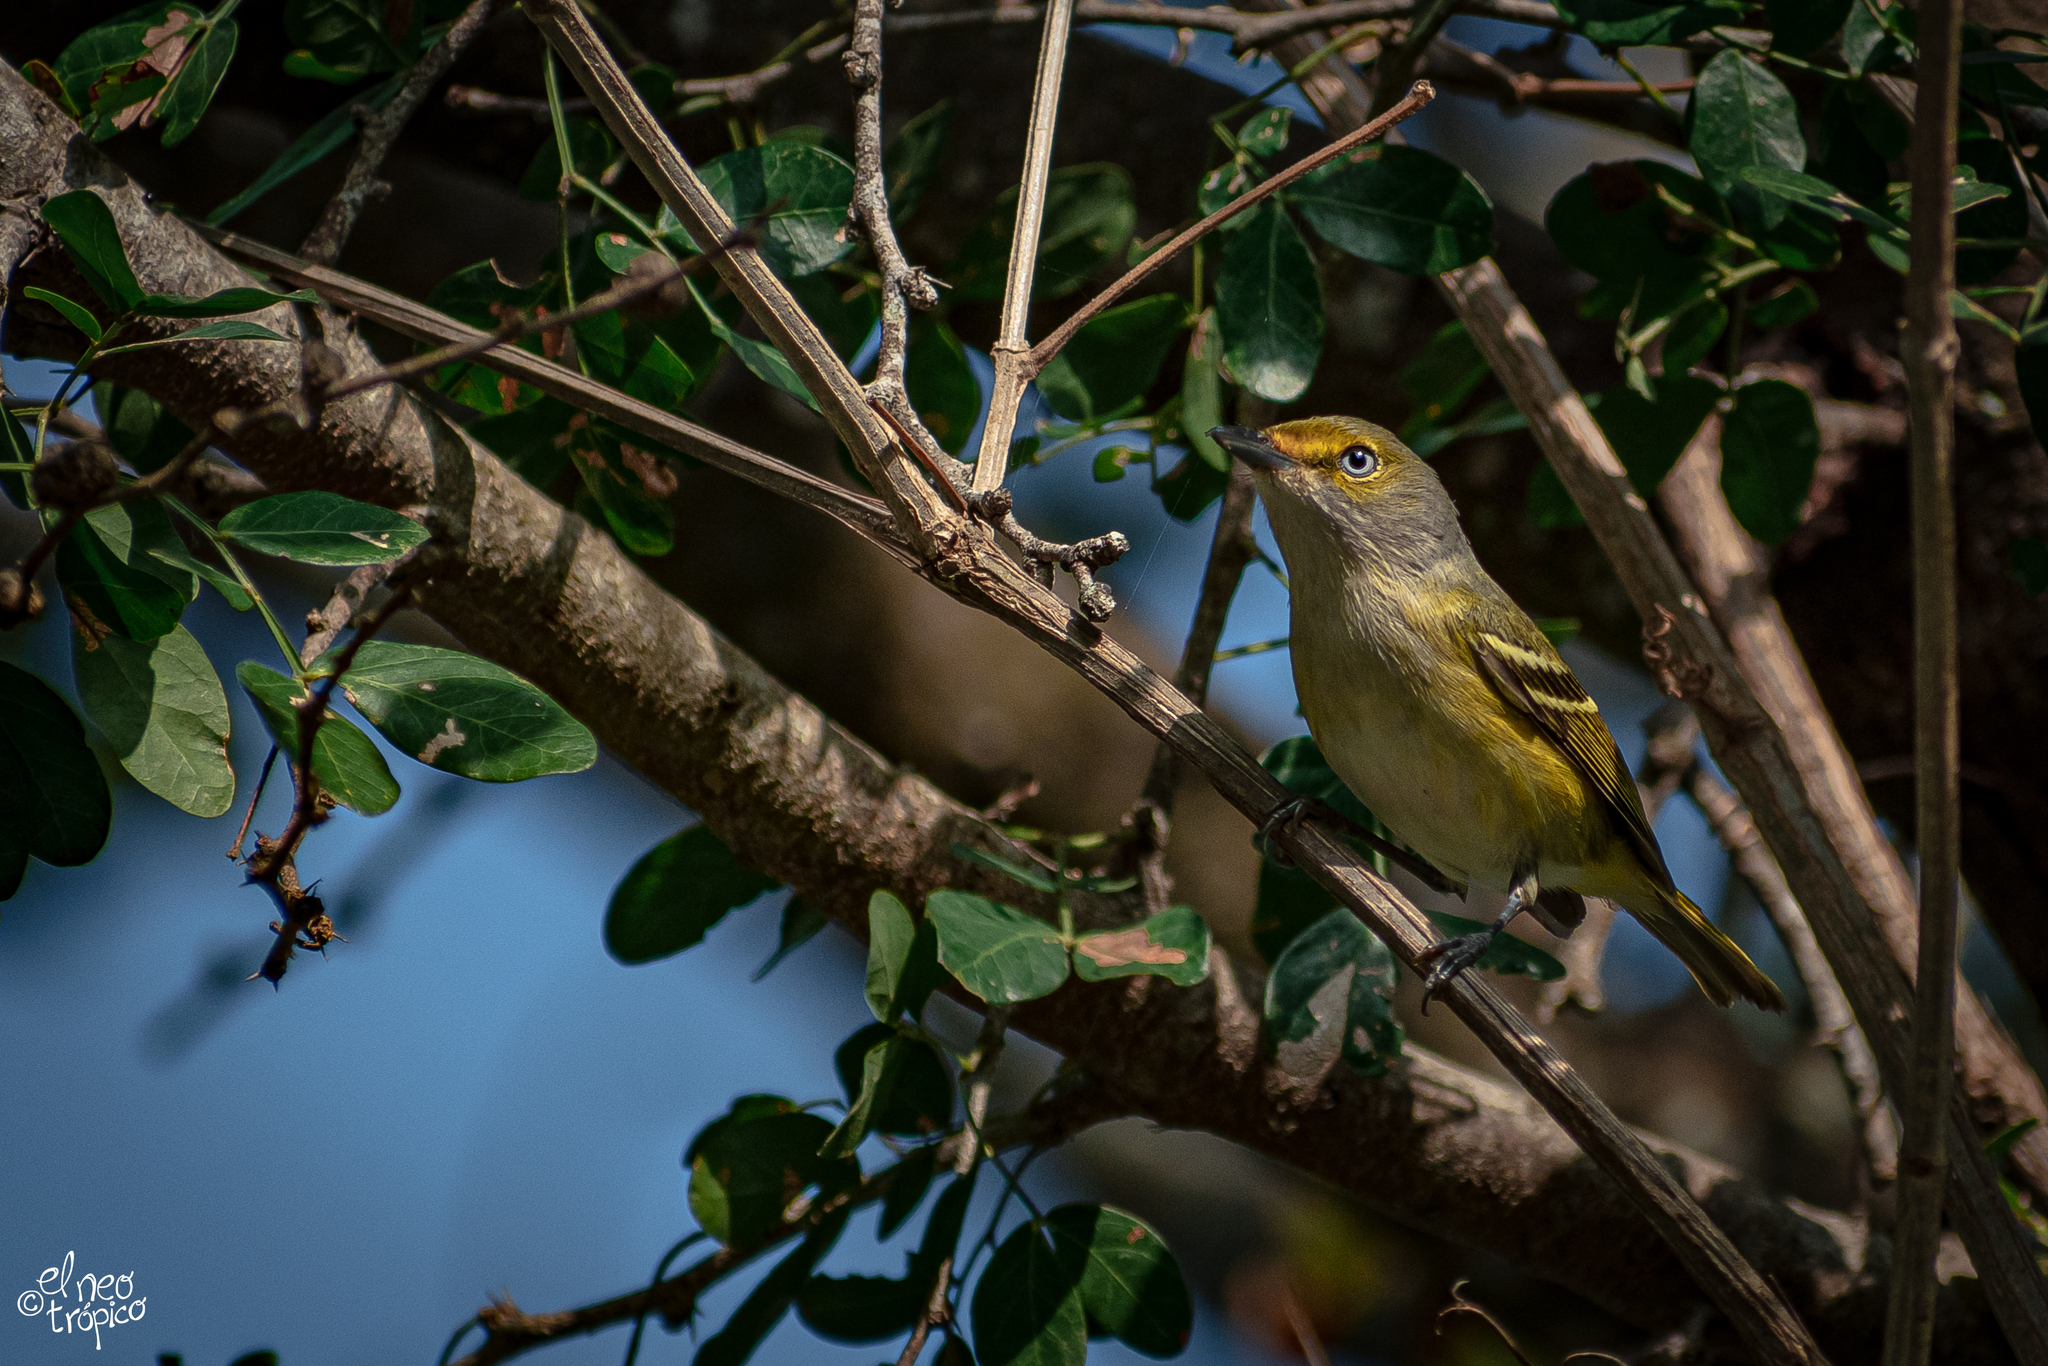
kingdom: Animalia
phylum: Chordata
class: Aves
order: Passeriformes
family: Vireonidae
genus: Vireo
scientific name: Vireo griseus
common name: White-eyed vireo
